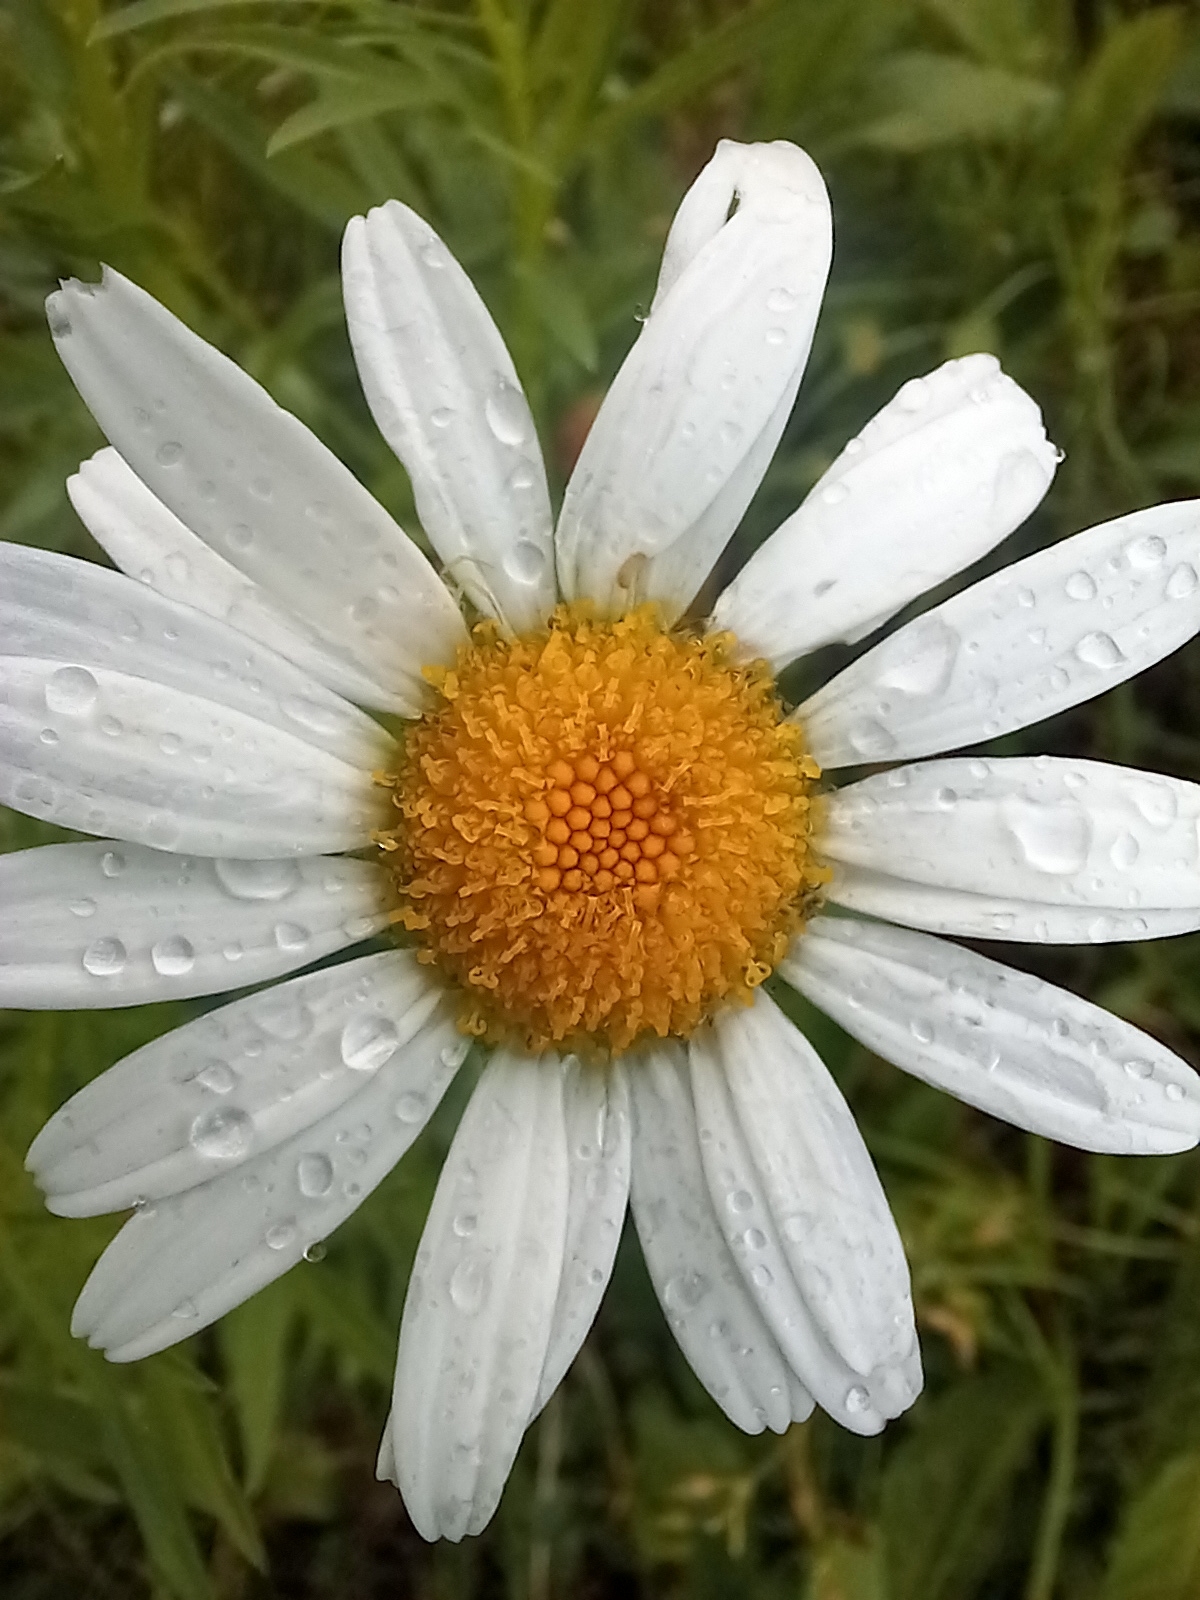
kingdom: Plantae
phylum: Tracheophyta
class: Magnoliopsida
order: Asterales
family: Asteraceae
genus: Leucanthemum
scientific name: Leucanthemum vulgare
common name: Oxeye daisy
